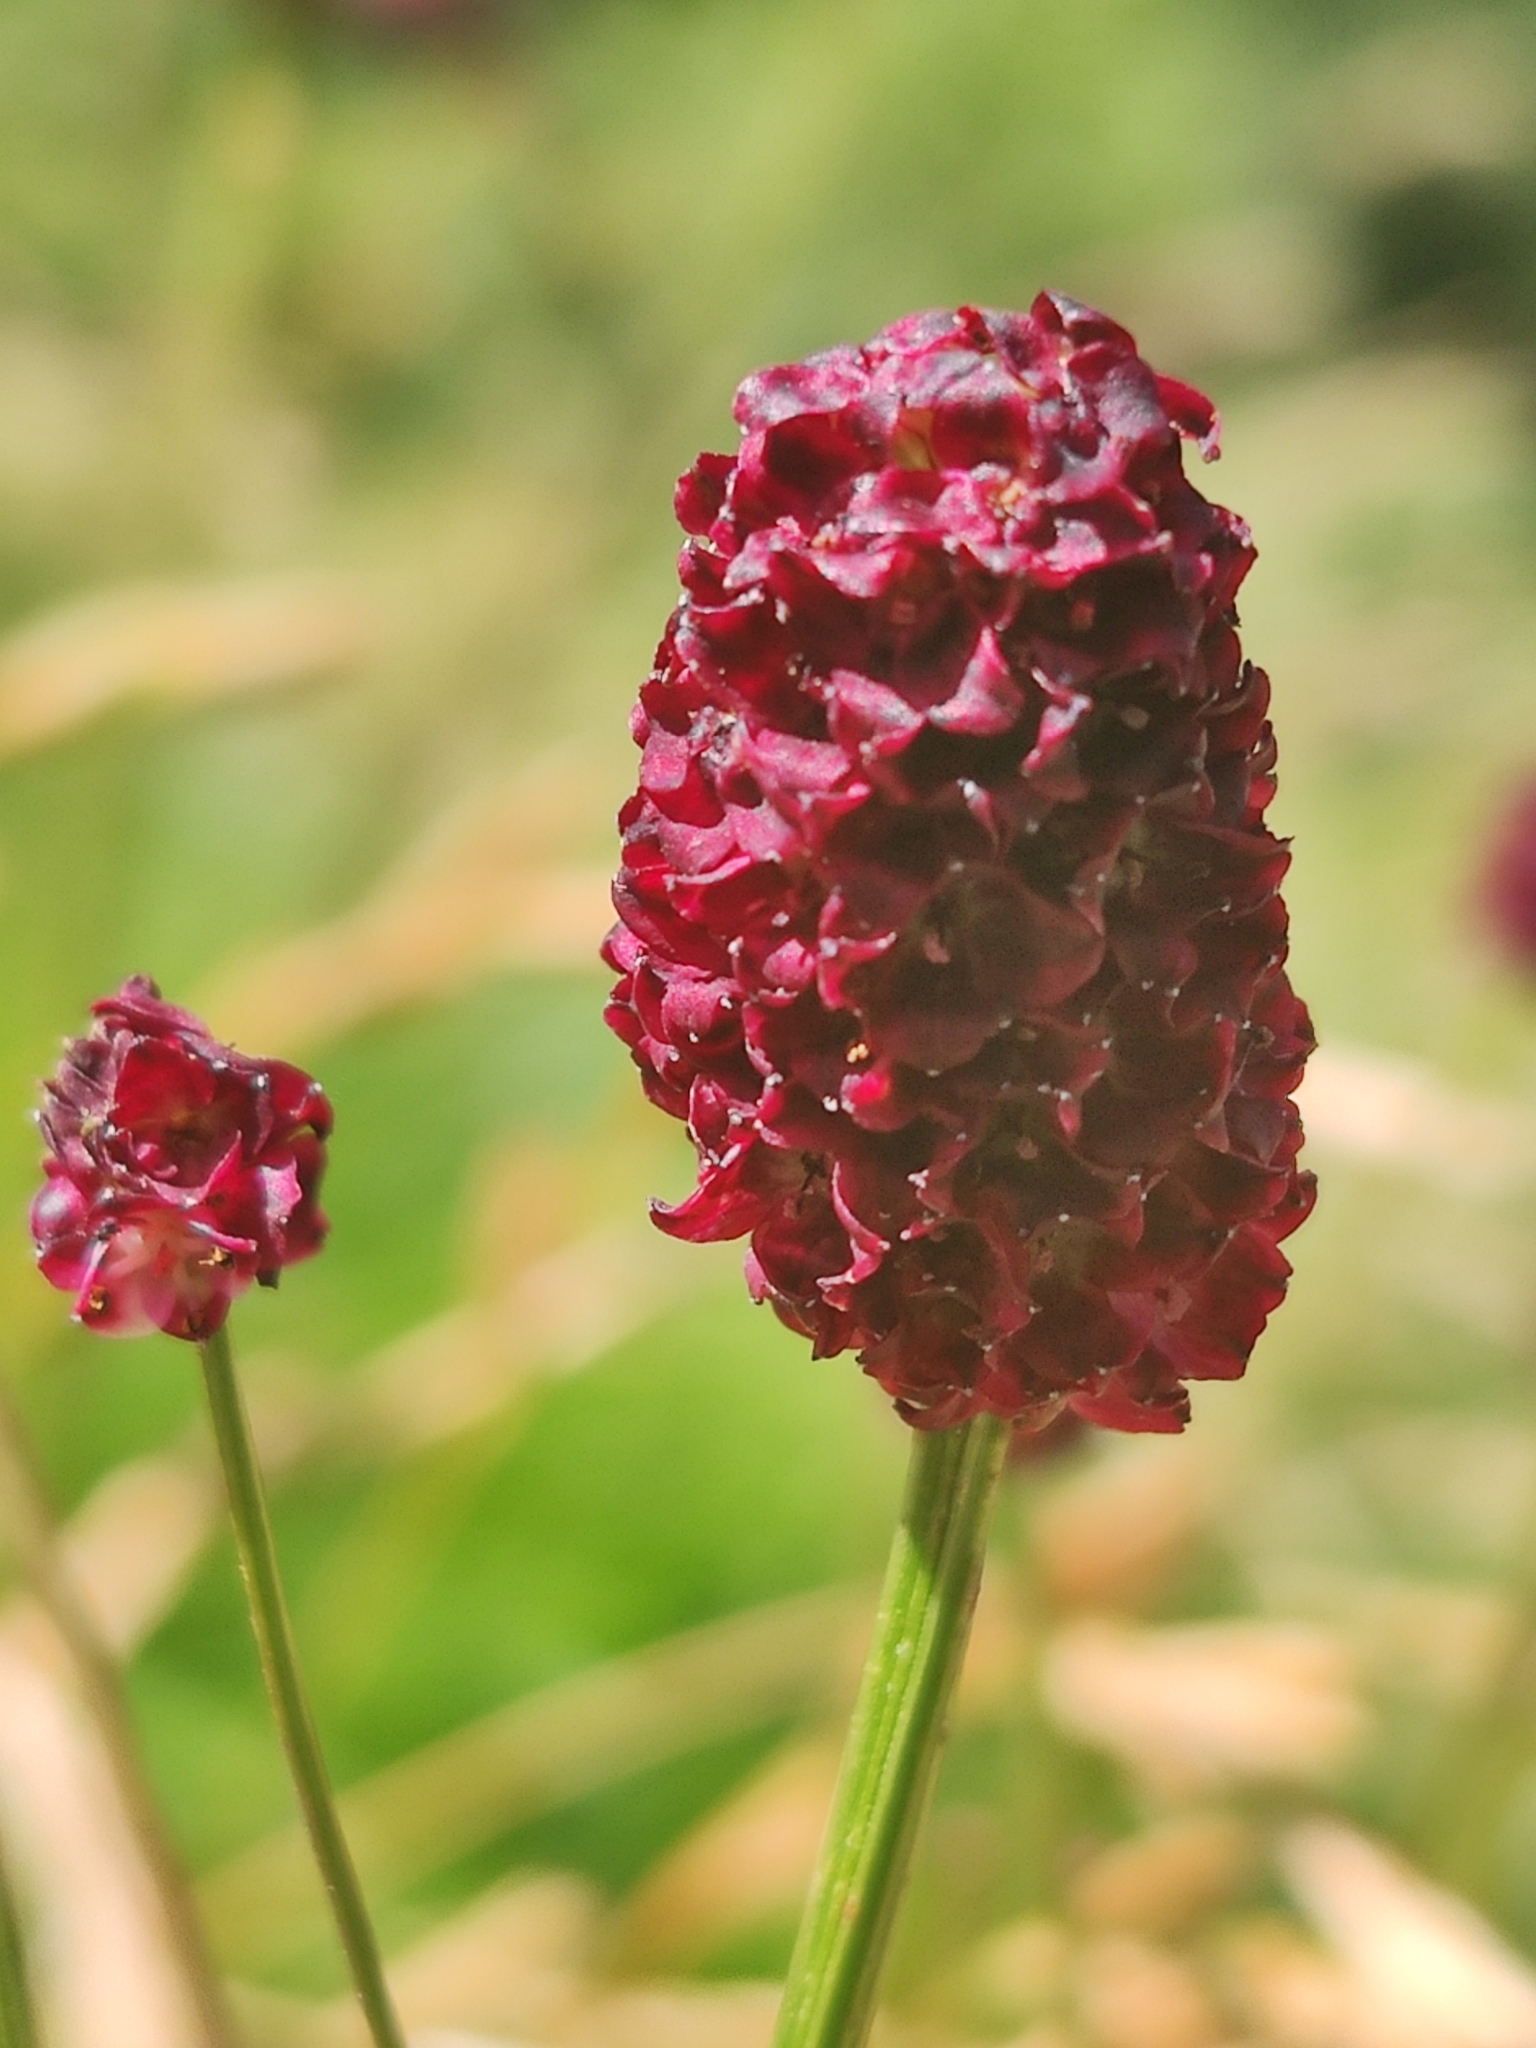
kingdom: Plantae
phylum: Tracheophyta
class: Magnoliopsida
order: Rosales
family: Rosaceae
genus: Sanguisorba
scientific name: Sanguisorba officinalis
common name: Great burnet
